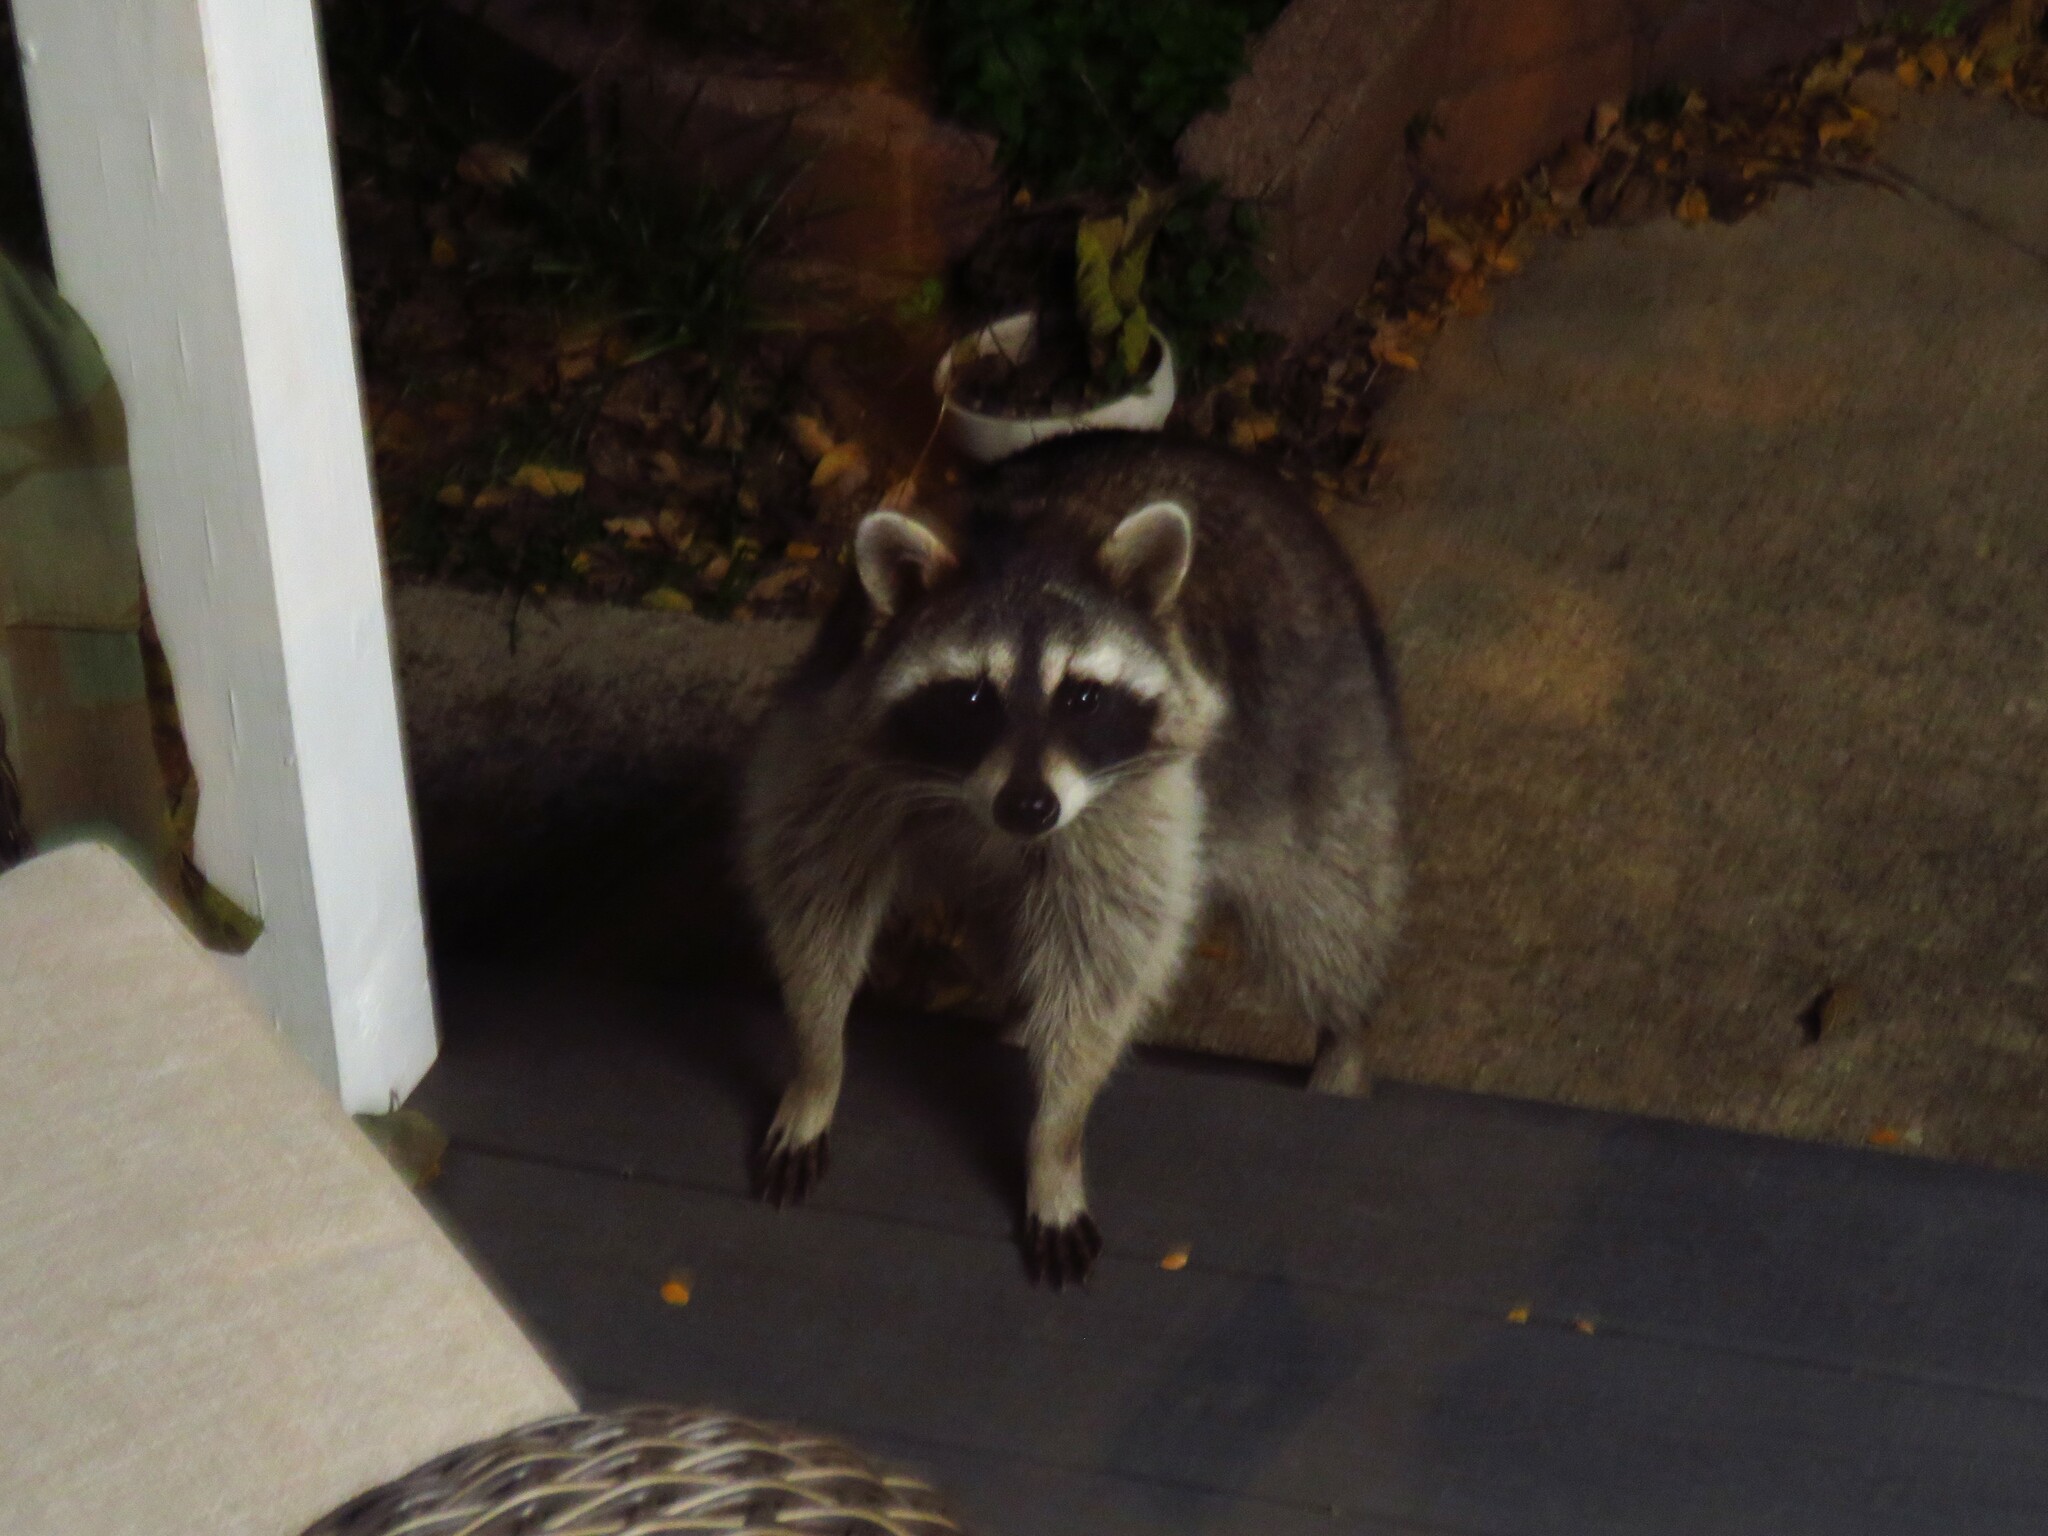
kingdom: Animalia
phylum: Chordata
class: Mammalia
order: Carnivora
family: Procyonidae
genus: Procyon
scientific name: Procyon lotor
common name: Raccoon
